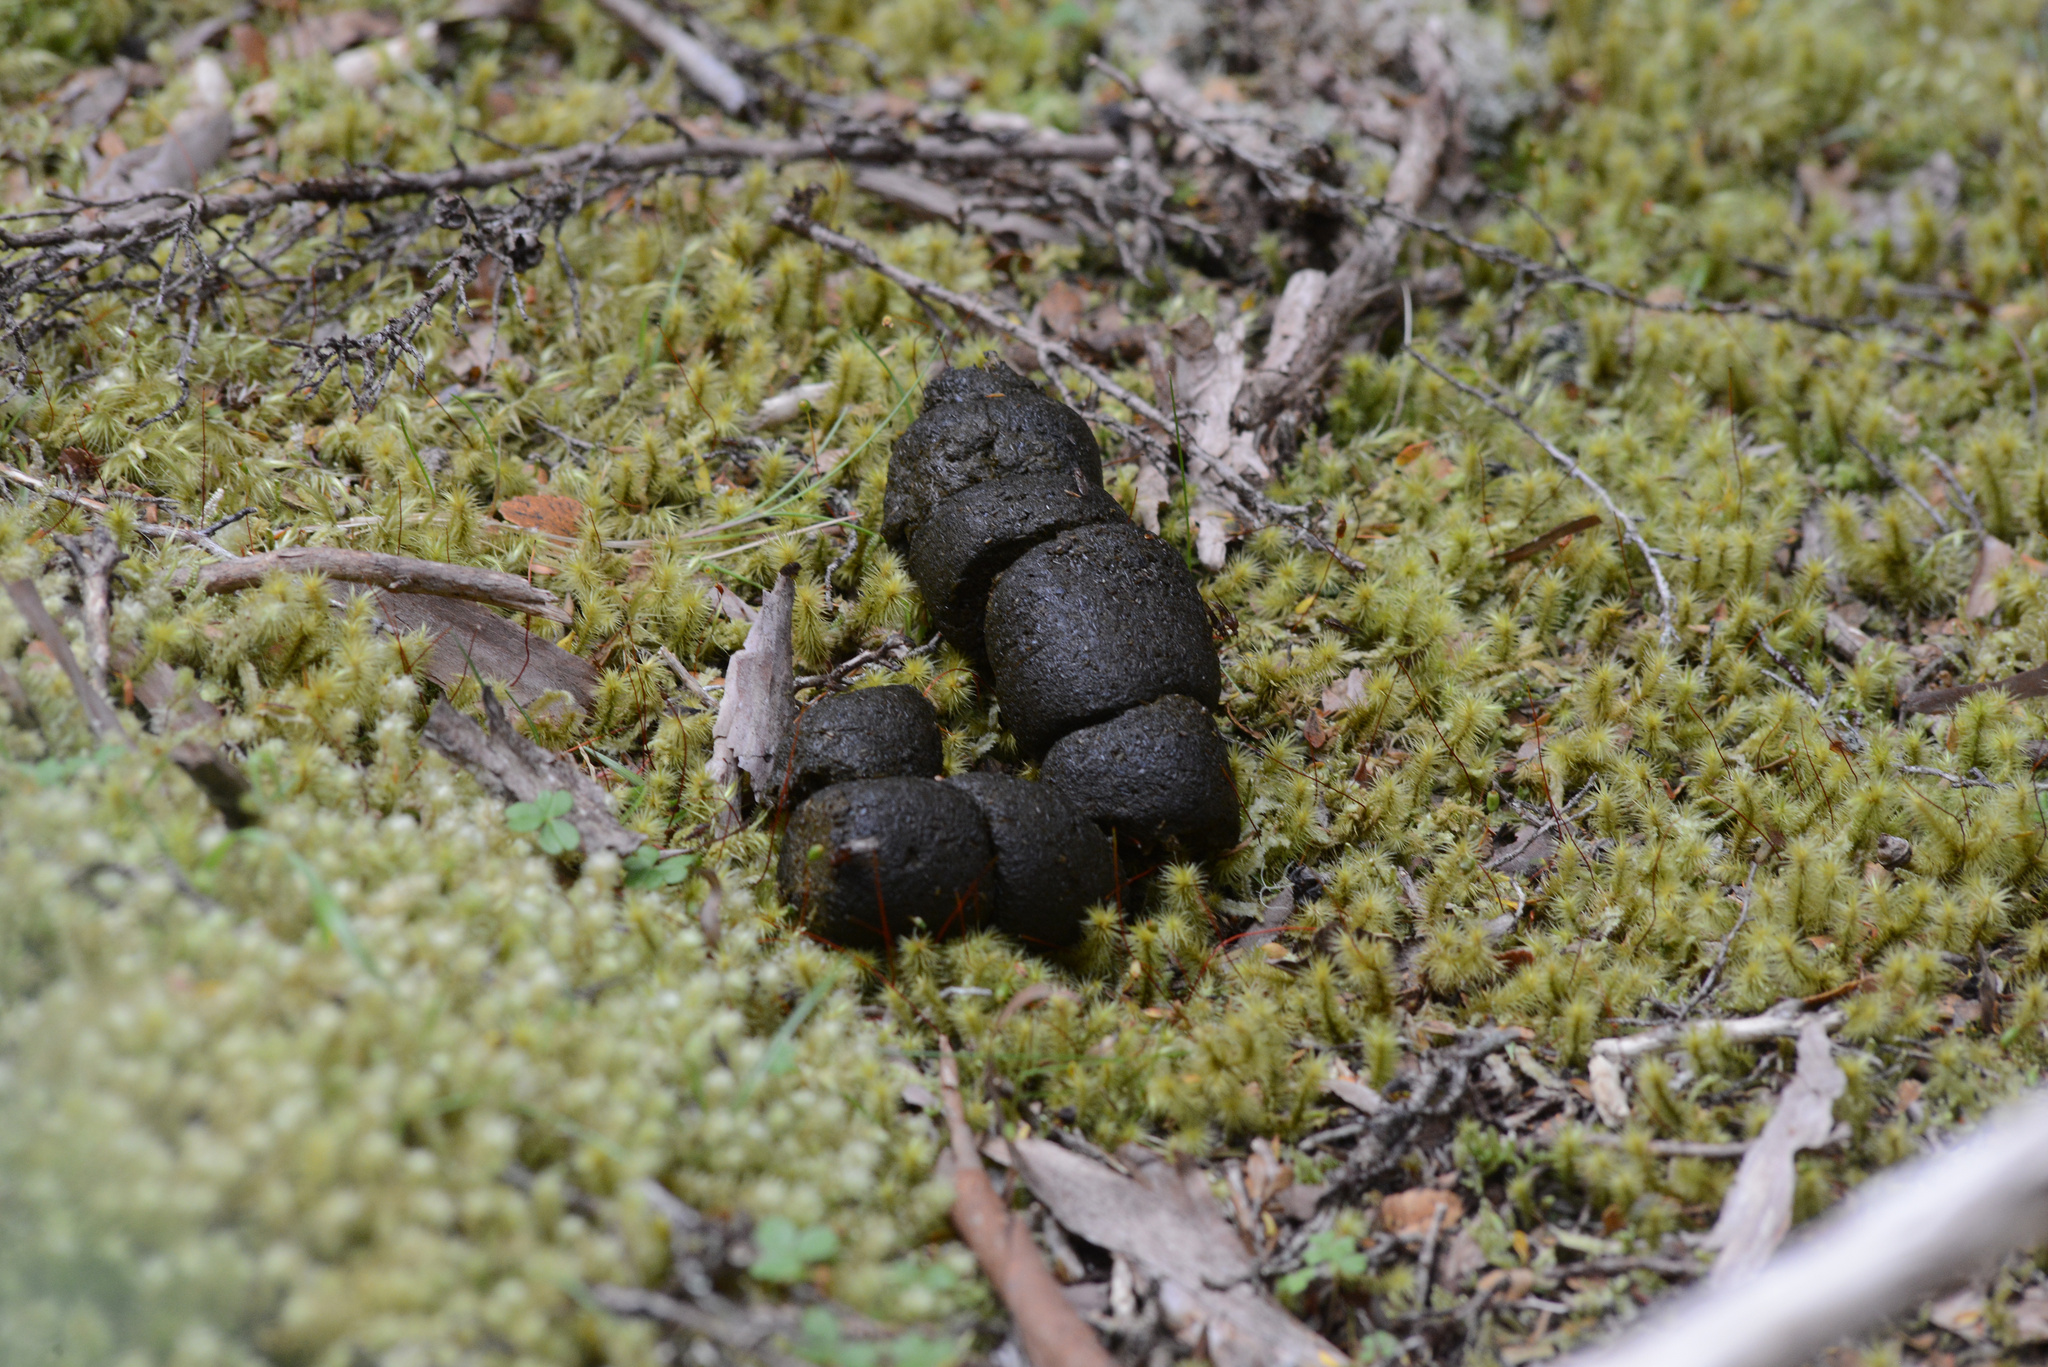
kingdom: Animalia
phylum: Chordata
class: Mammalia
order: Diprotodontia
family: Vombatidae
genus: Vombatus
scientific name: Vombatus ursinus
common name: Common wombat
